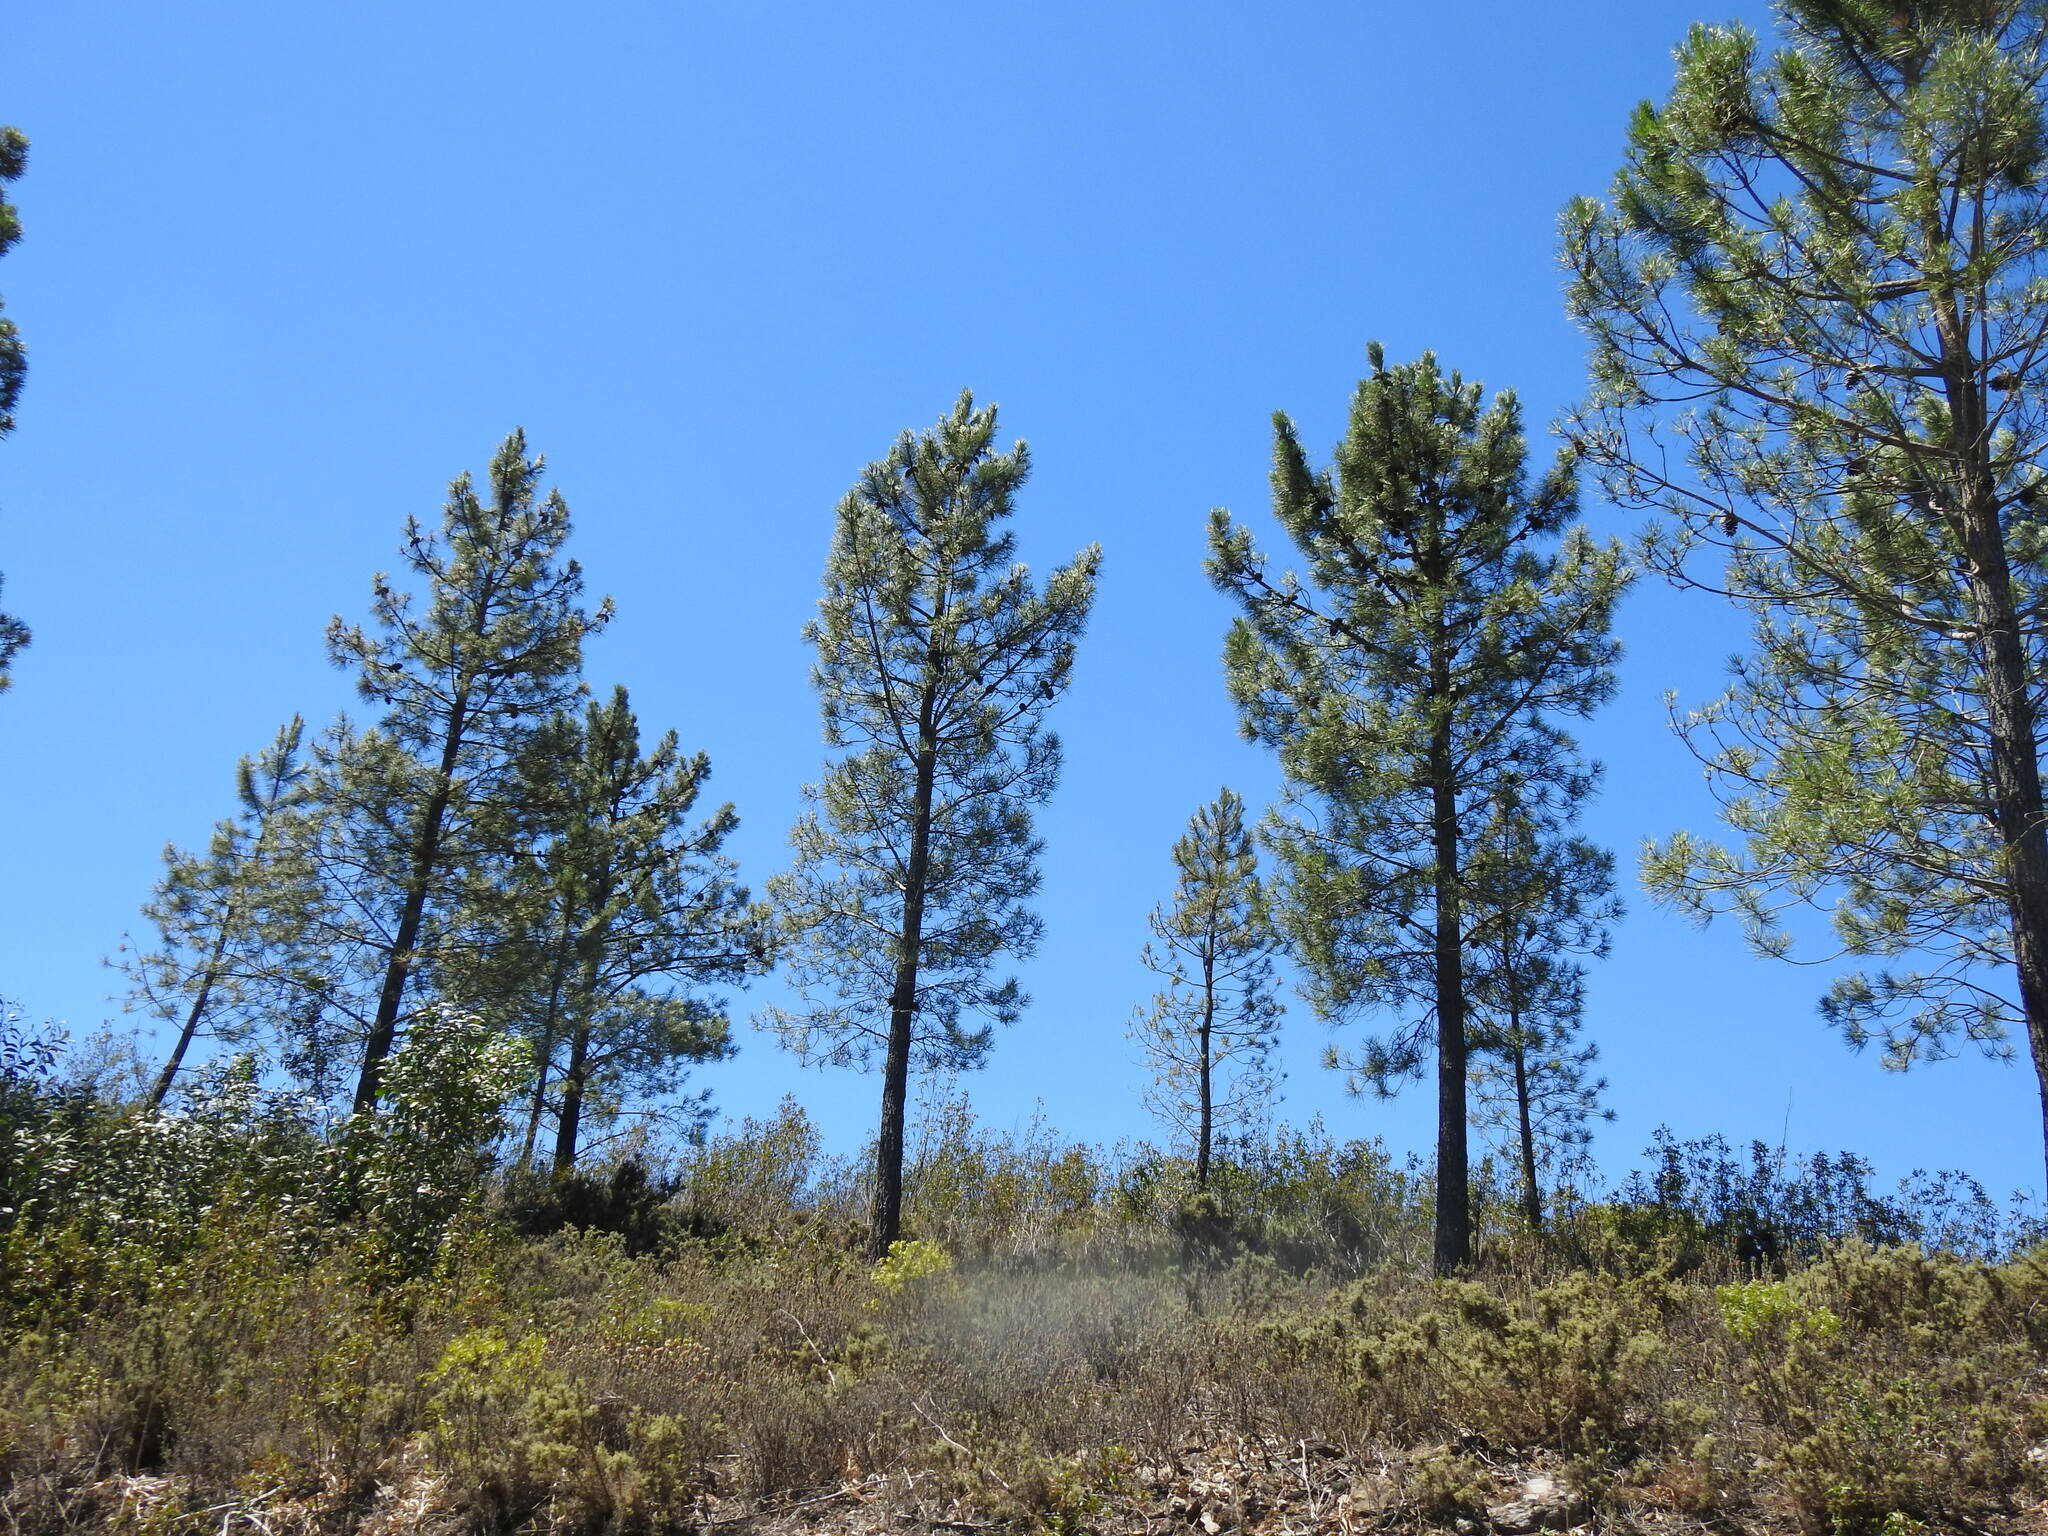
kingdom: Plantae
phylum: Tracheophyta
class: Pinopsida
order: Pinales
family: Pinaceae
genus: Pinus
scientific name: Pinus pinaster
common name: Maritime pine
